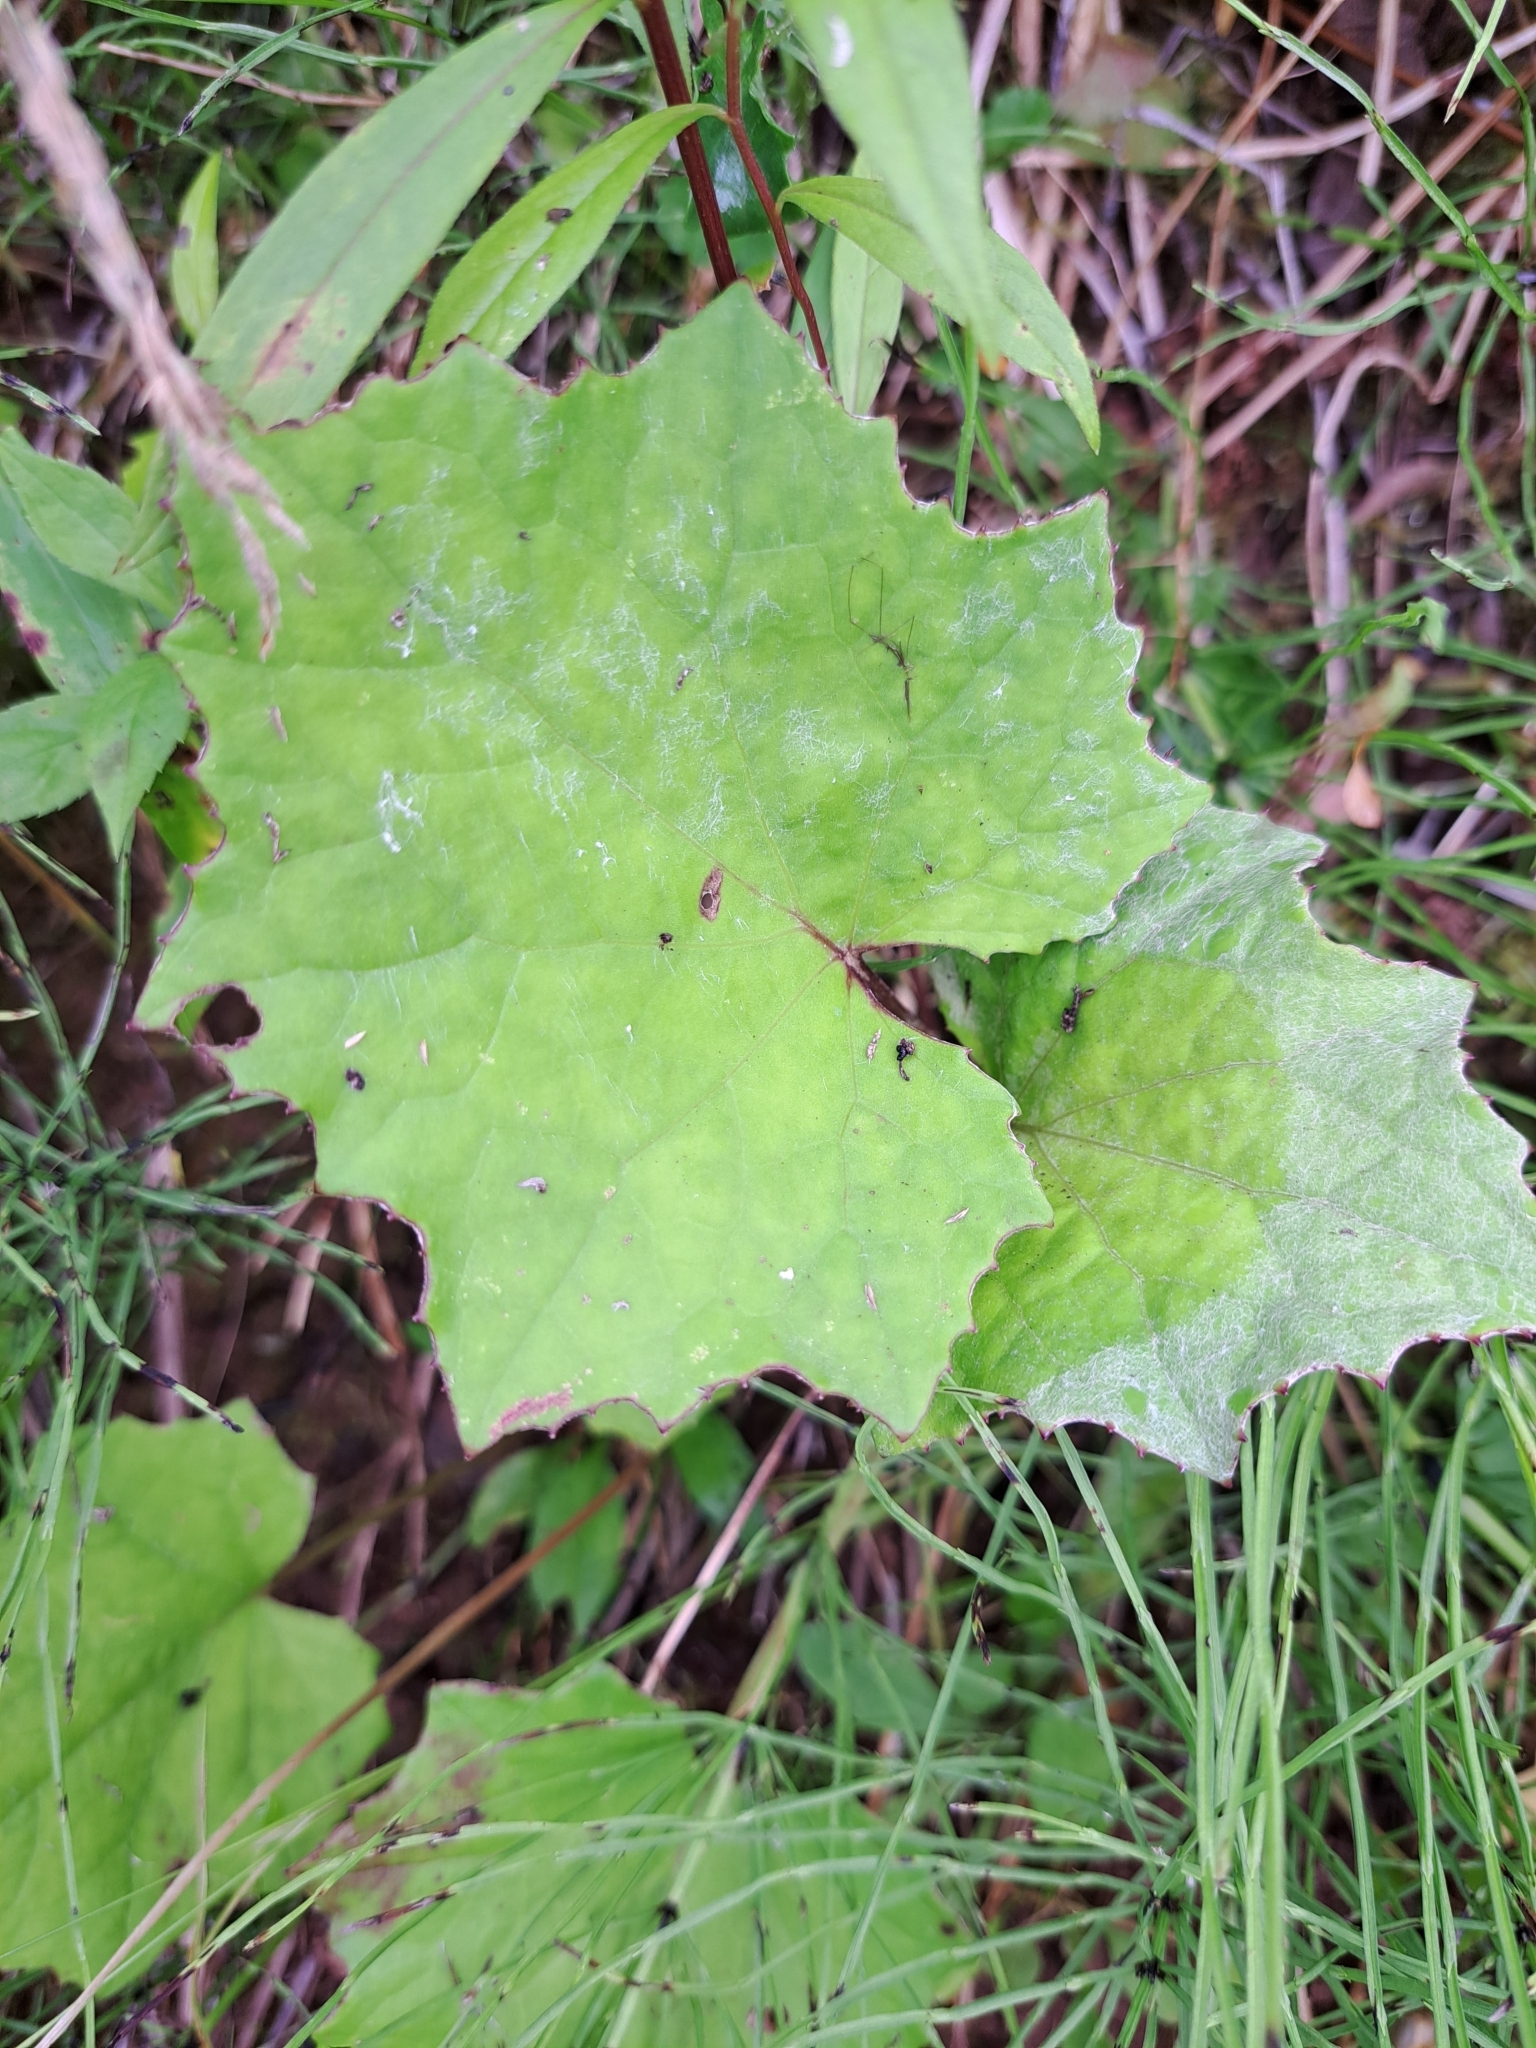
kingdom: Plantae
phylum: Tracheophyta
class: Magnoliopsida
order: Asterales
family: Asteraceae
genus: Tussilago
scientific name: Tussilago farfara
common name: Coltsfoot
